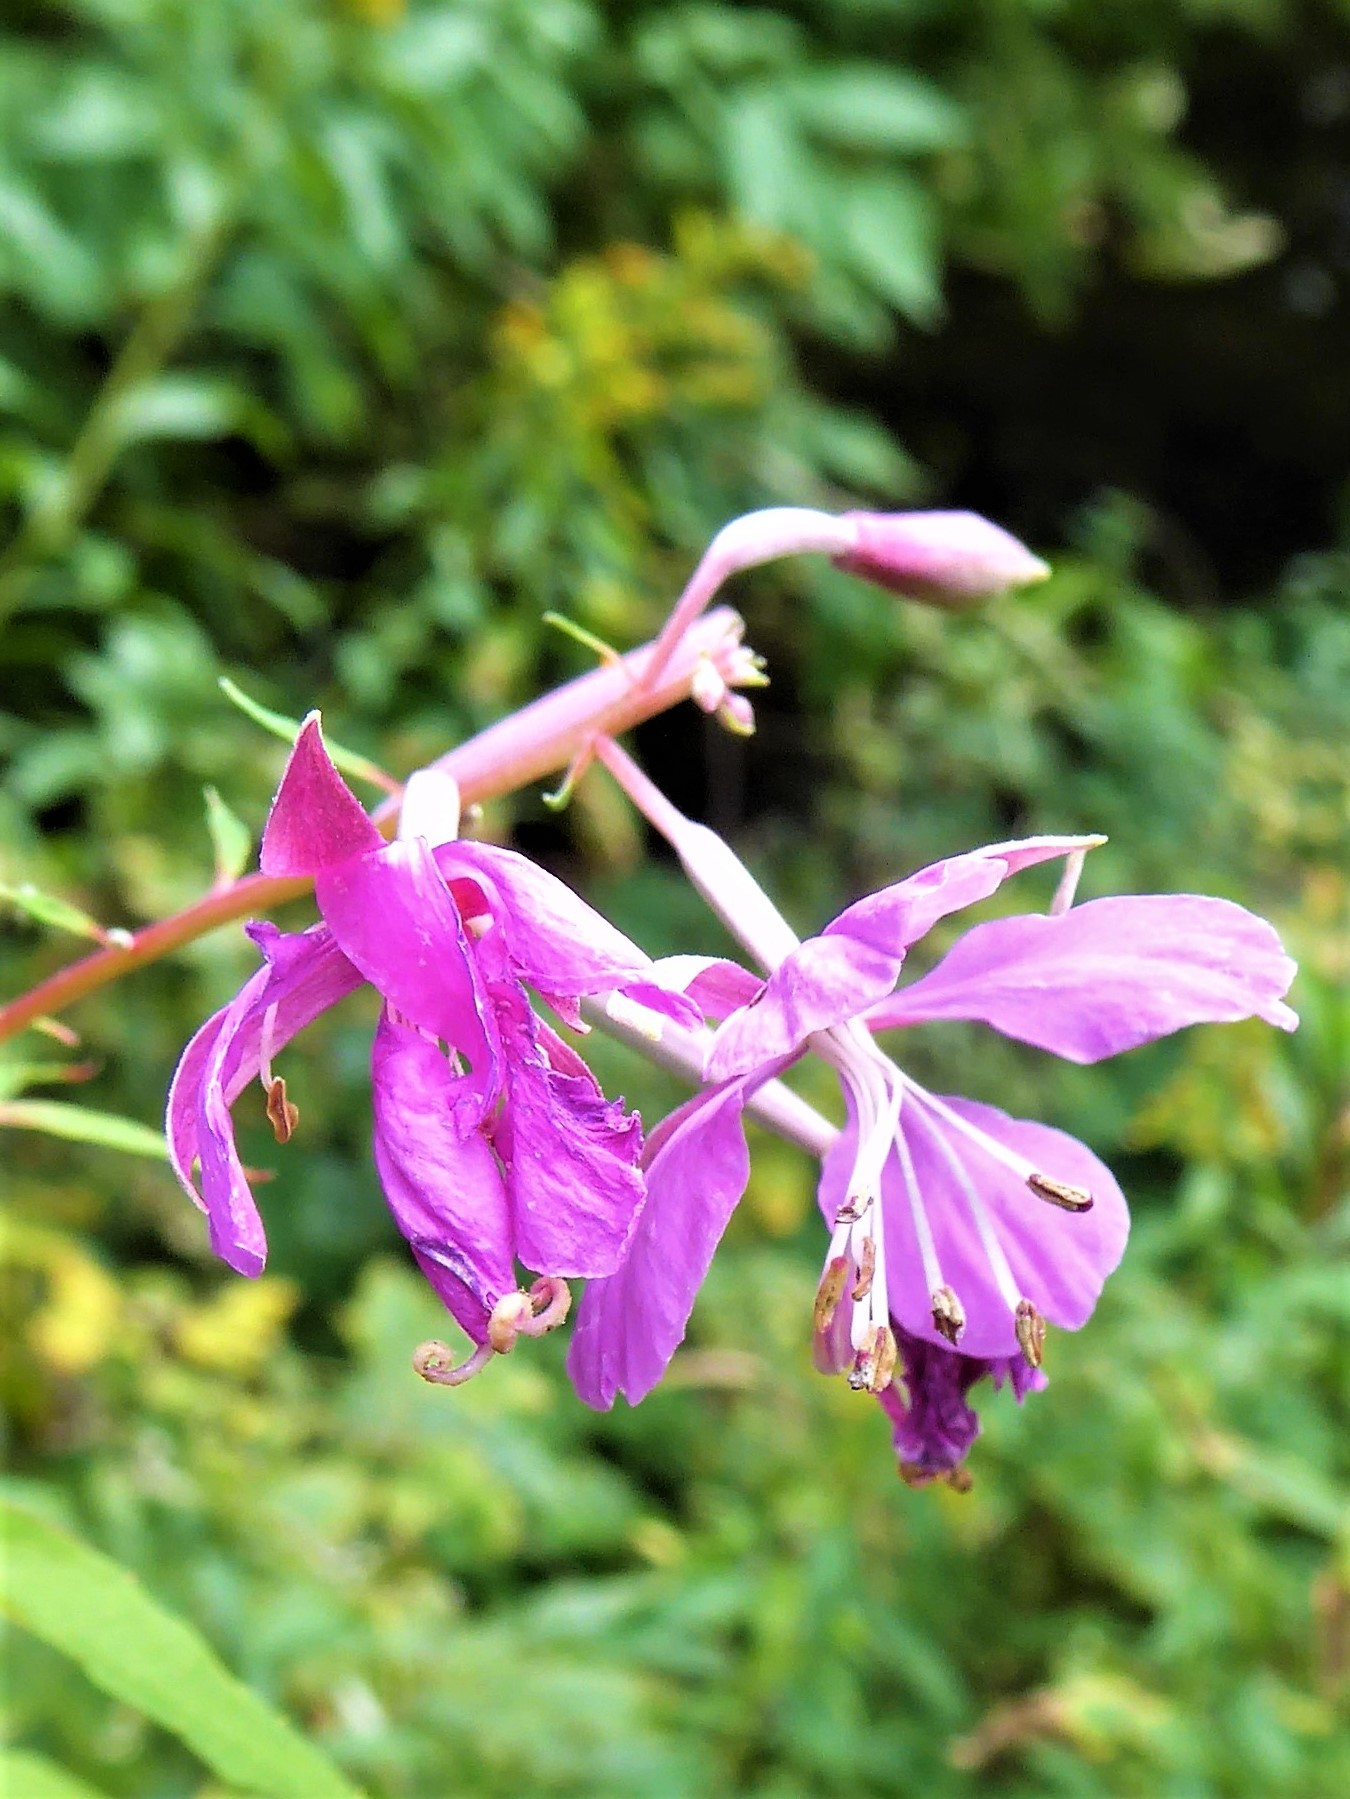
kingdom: Plantae
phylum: Tracheophyta
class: Magnoliopsida
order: Myrtales
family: Onagraceae
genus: Chamaenerion
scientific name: Chamaenerion angustifolium
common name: Fireweed
